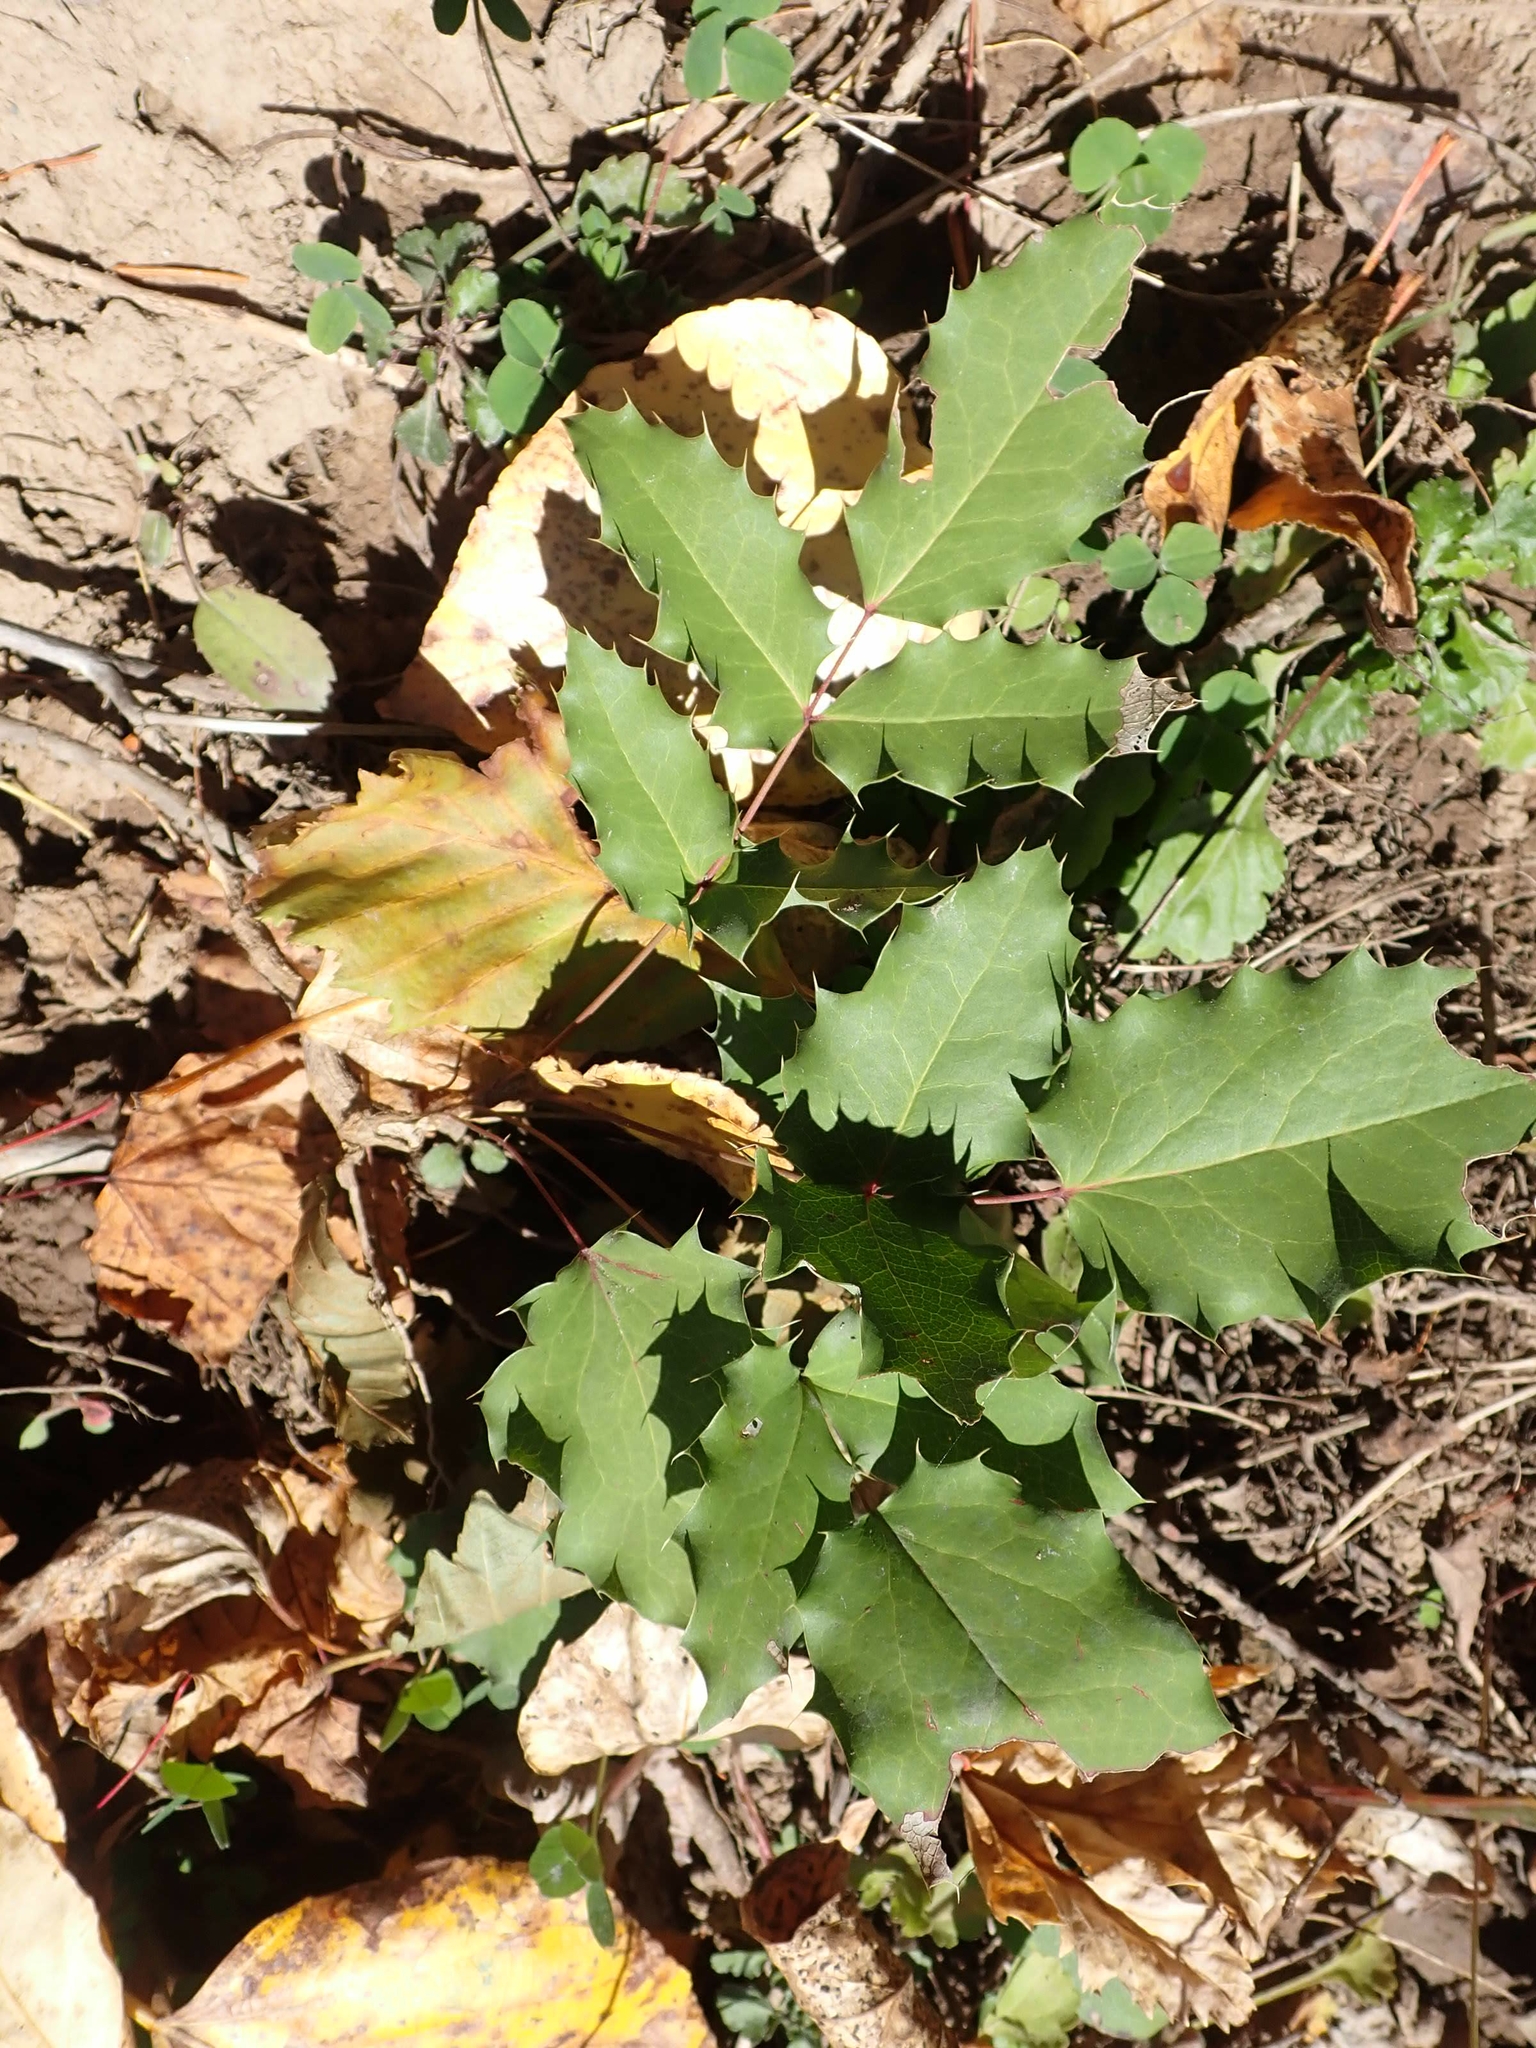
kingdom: Plantae
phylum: Tracheophyta
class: Magnoliopsida
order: Ranunculales
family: Berberidaceae
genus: Mahonia
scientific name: Mahonia repens
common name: Creeping oregon-grape
